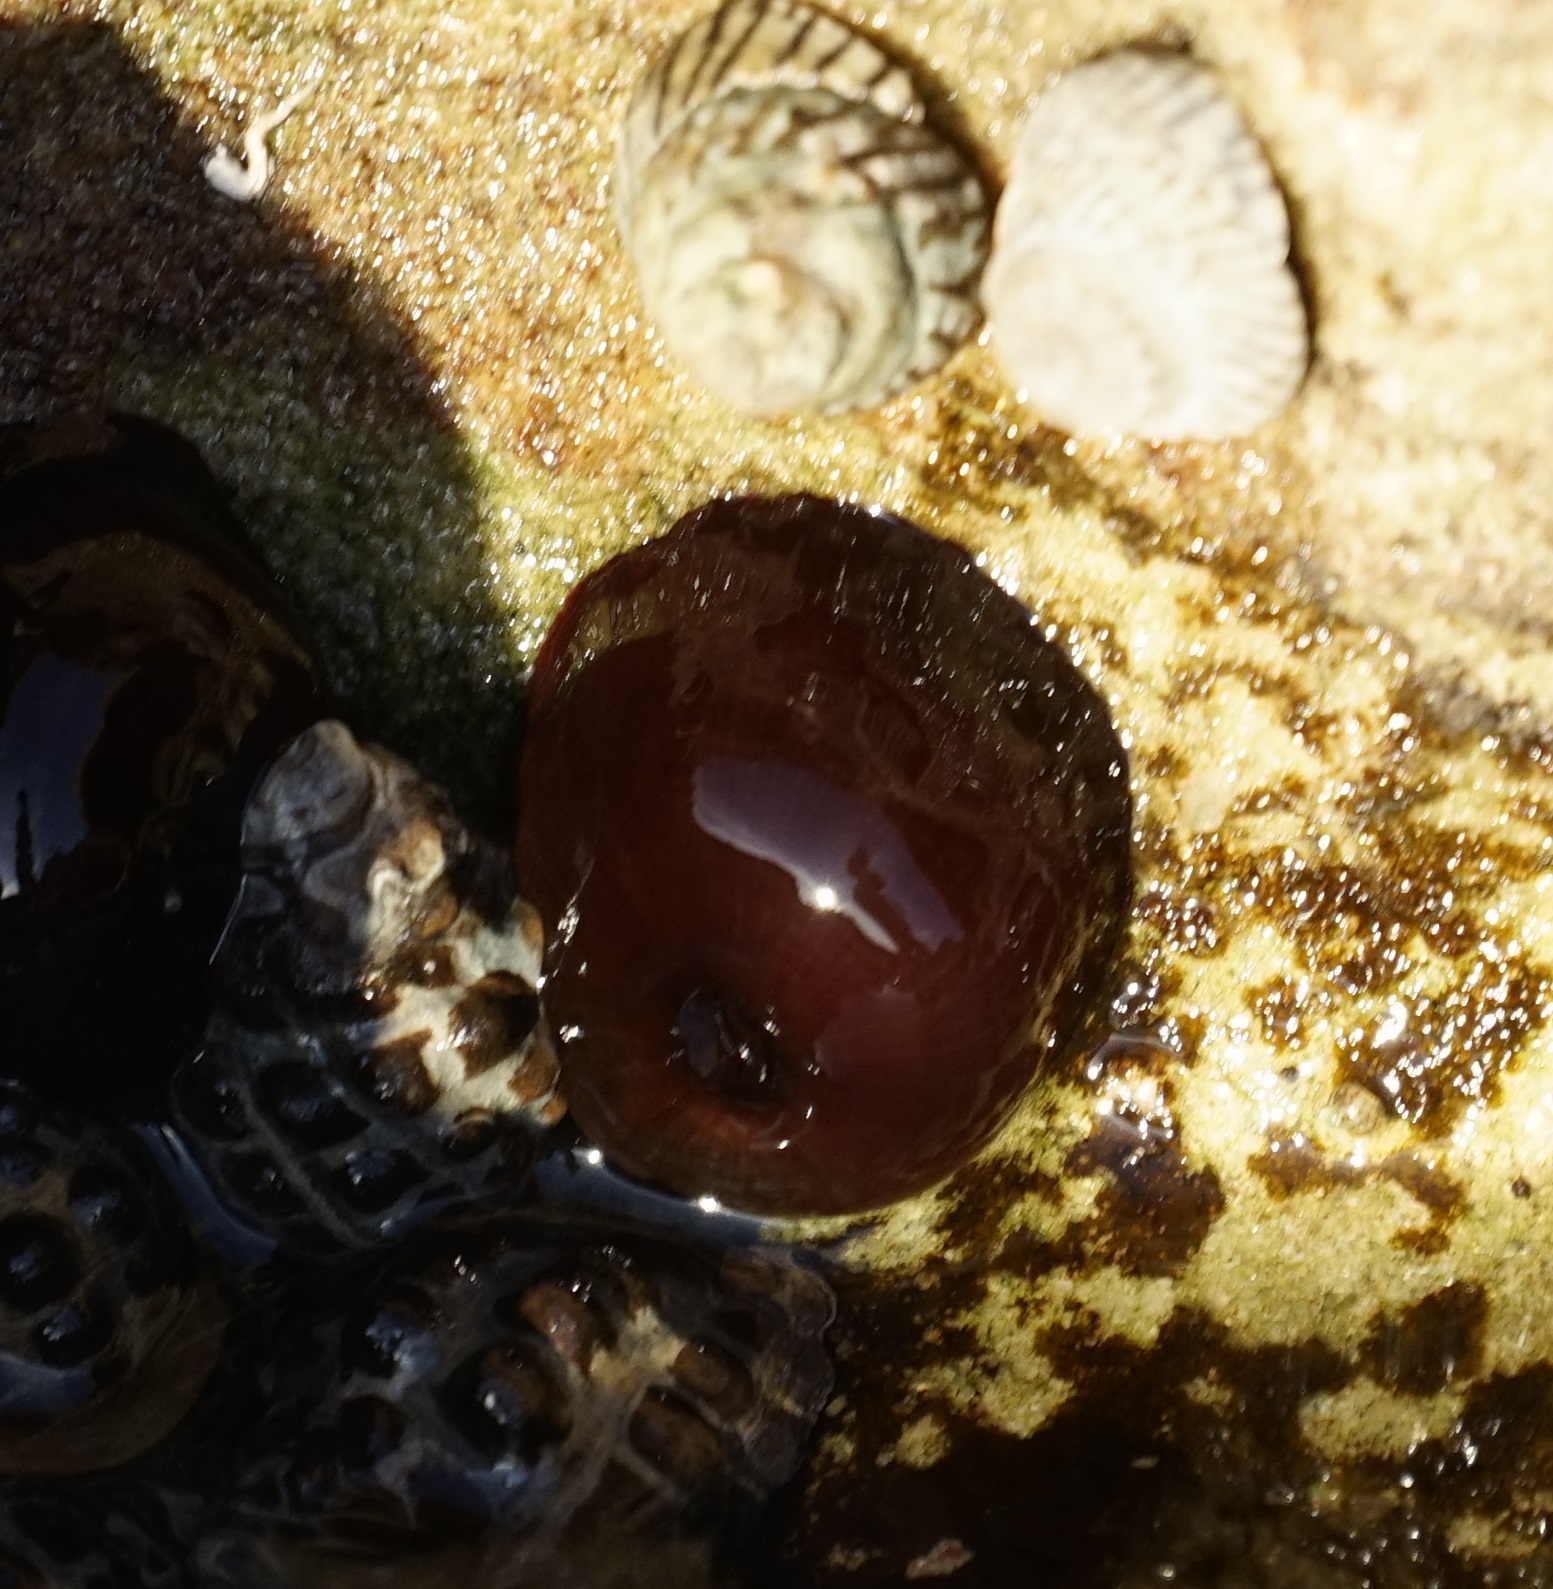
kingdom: Animalia
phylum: Cnidaria
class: Anthozoa
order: Actiniaria
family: Actiniidae
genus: Actinia
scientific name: Actinia tenebrosa
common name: Waratah anemone
